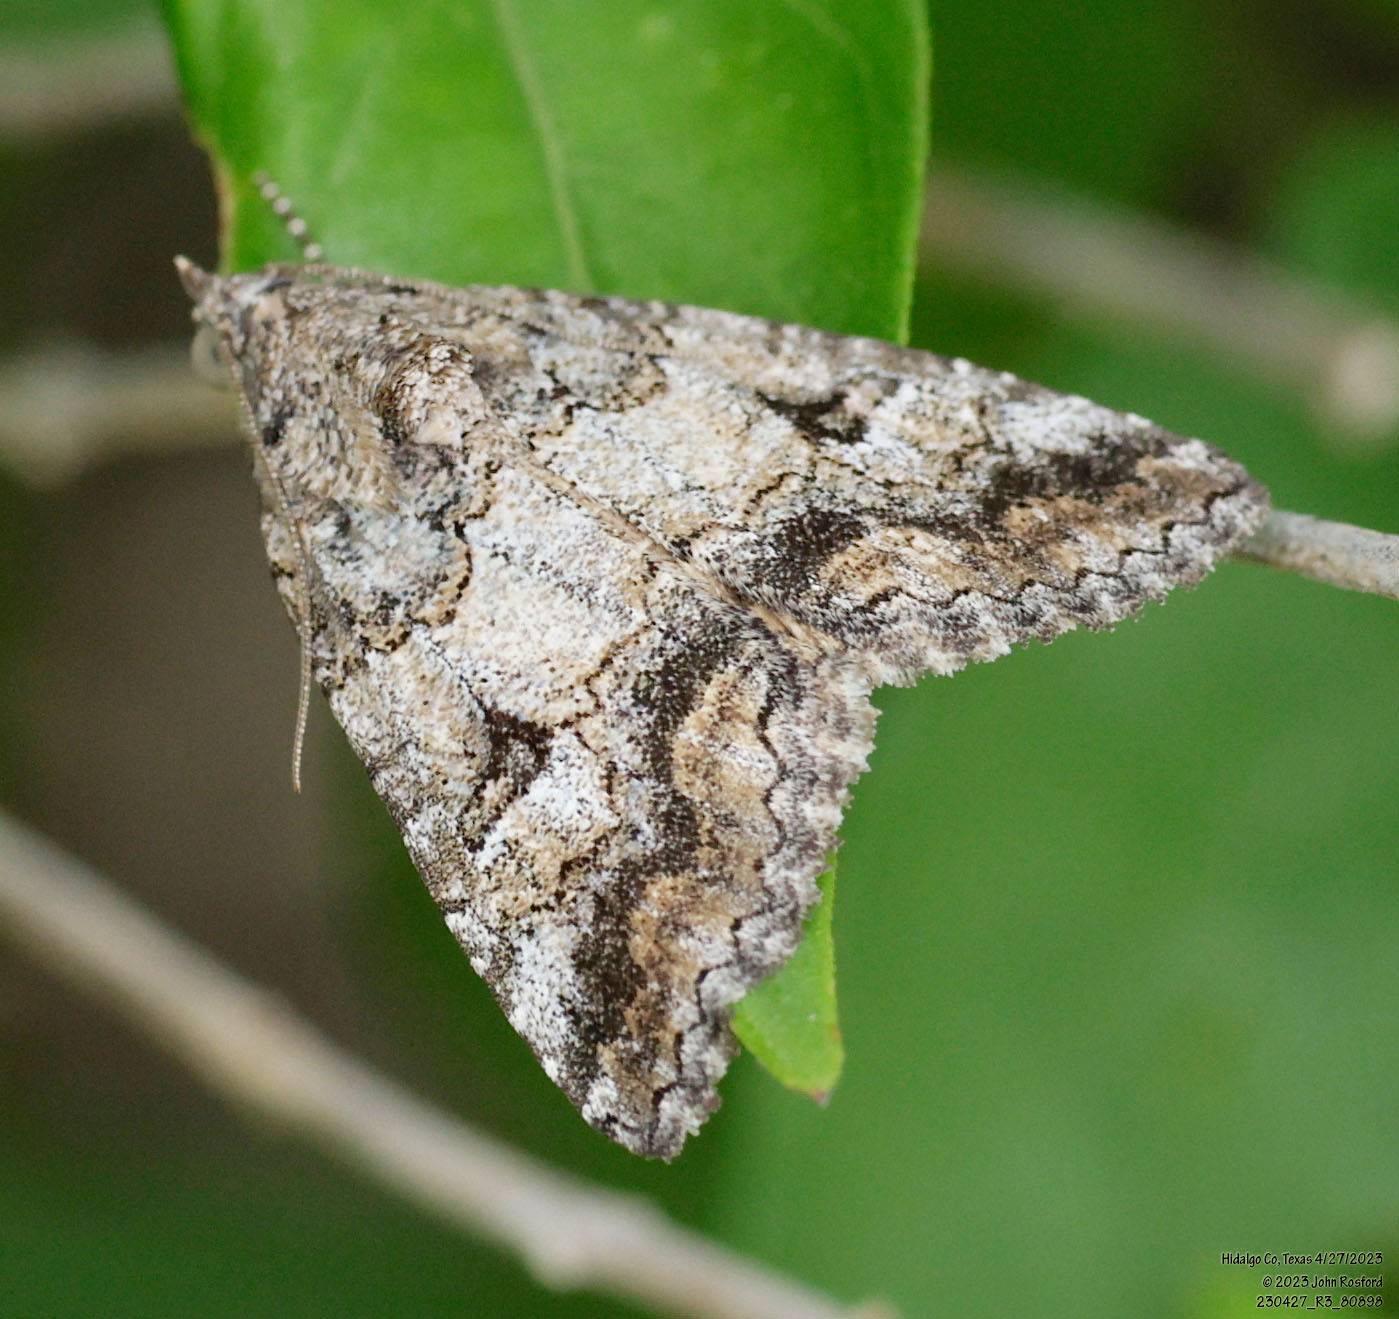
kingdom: Animalia
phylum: Arthropoda
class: Insecta
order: Lepidoptera
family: Erebidae
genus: Eubolina
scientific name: Eubolina impartialis
